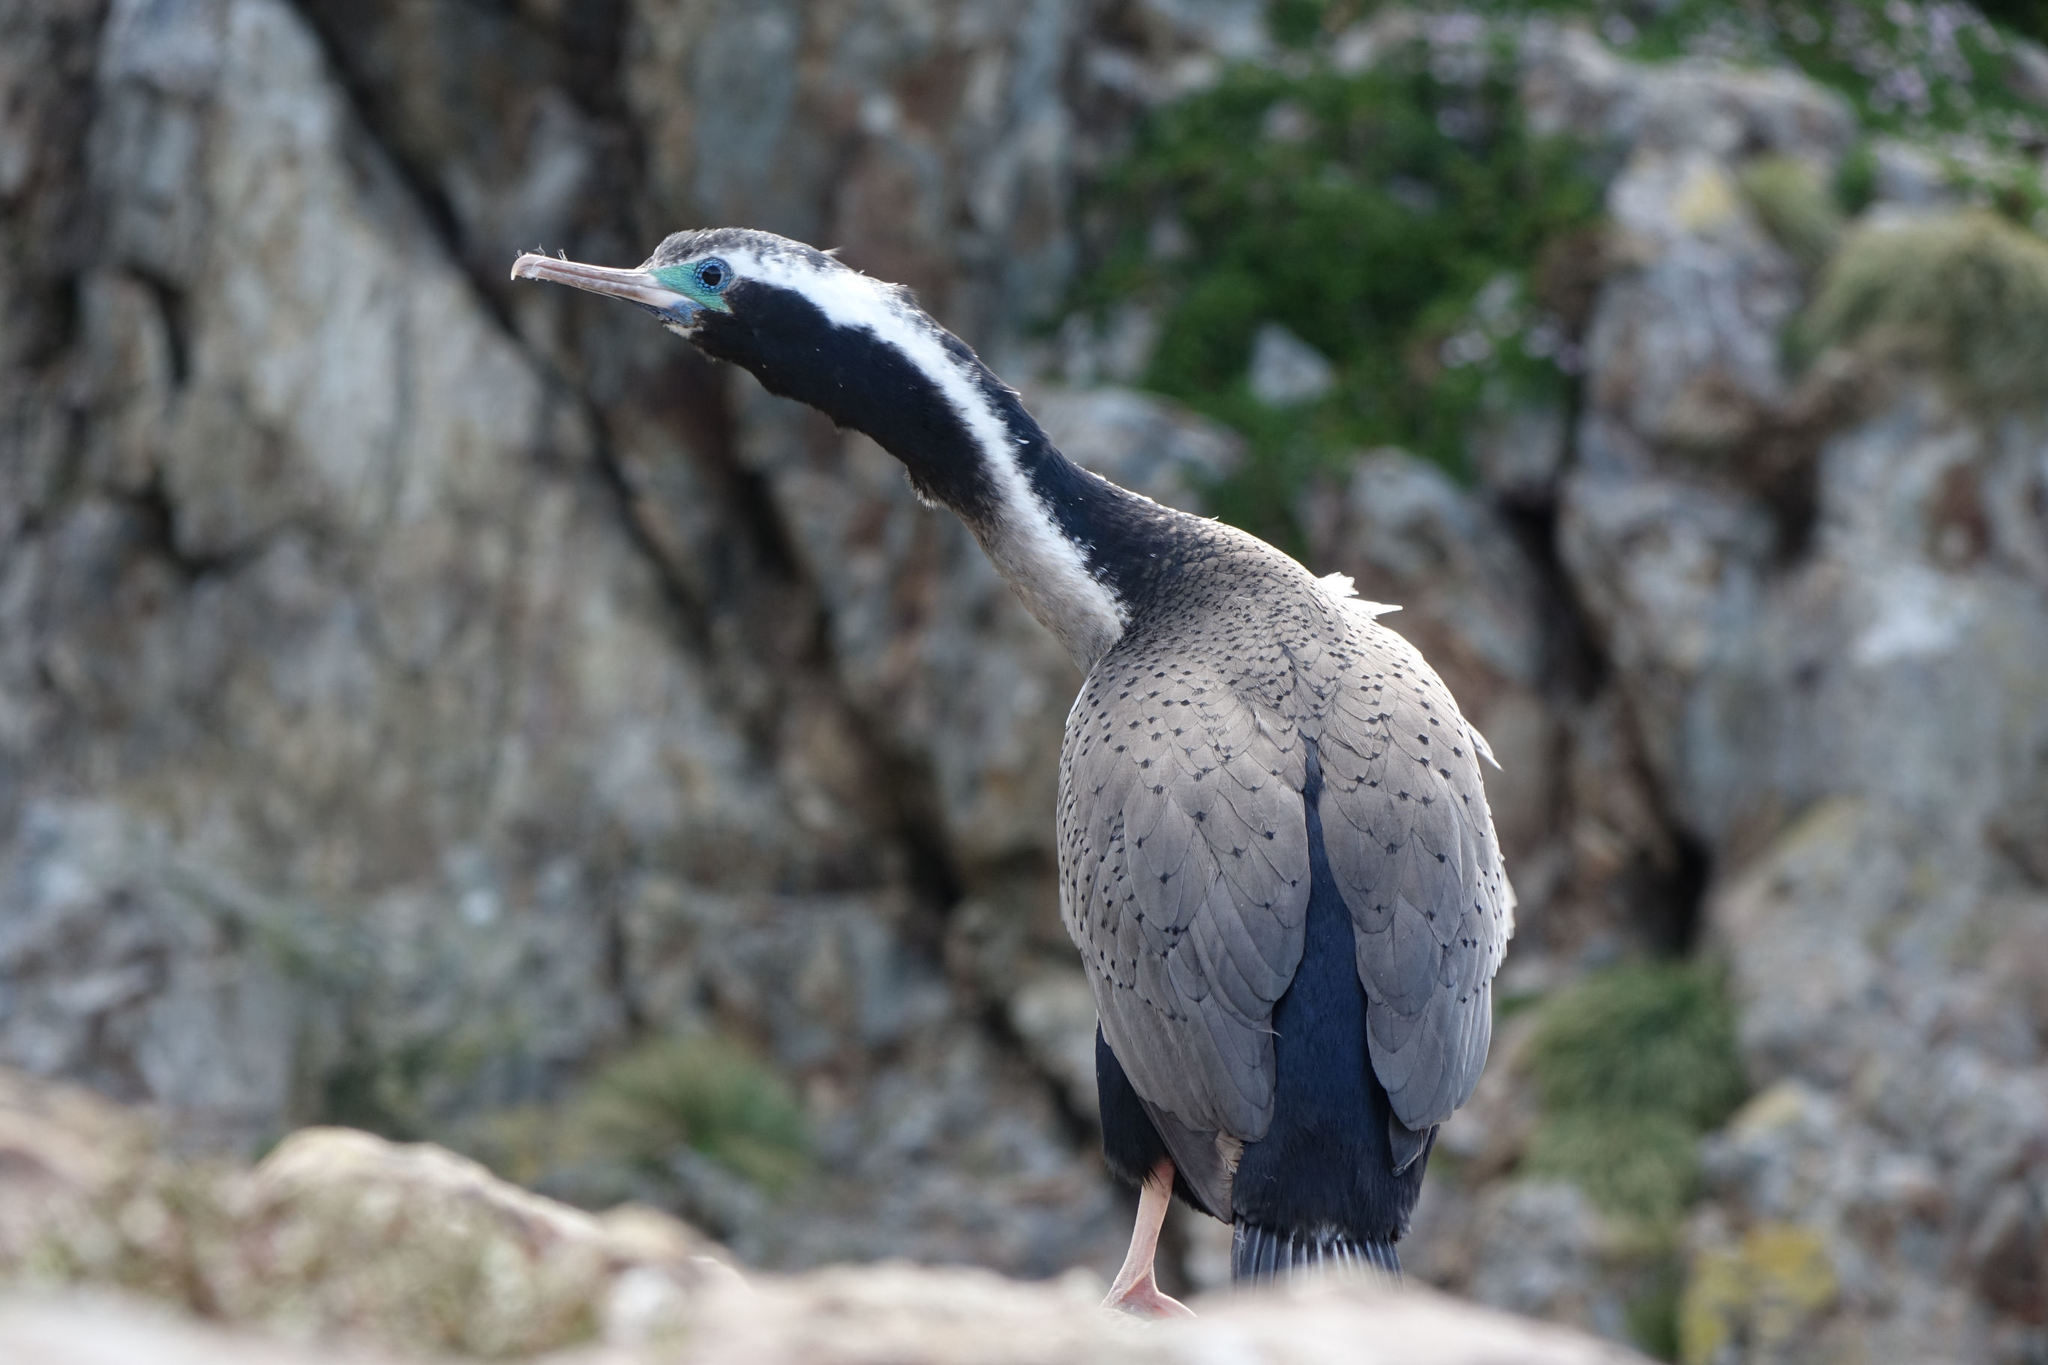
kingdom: Animalia
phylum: Chordata
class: Aves
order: Suliformes
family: Phalacrocoracidae
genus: Phalacrocorax
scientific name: Phalacrocorax punctatus
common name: Spotted shag
